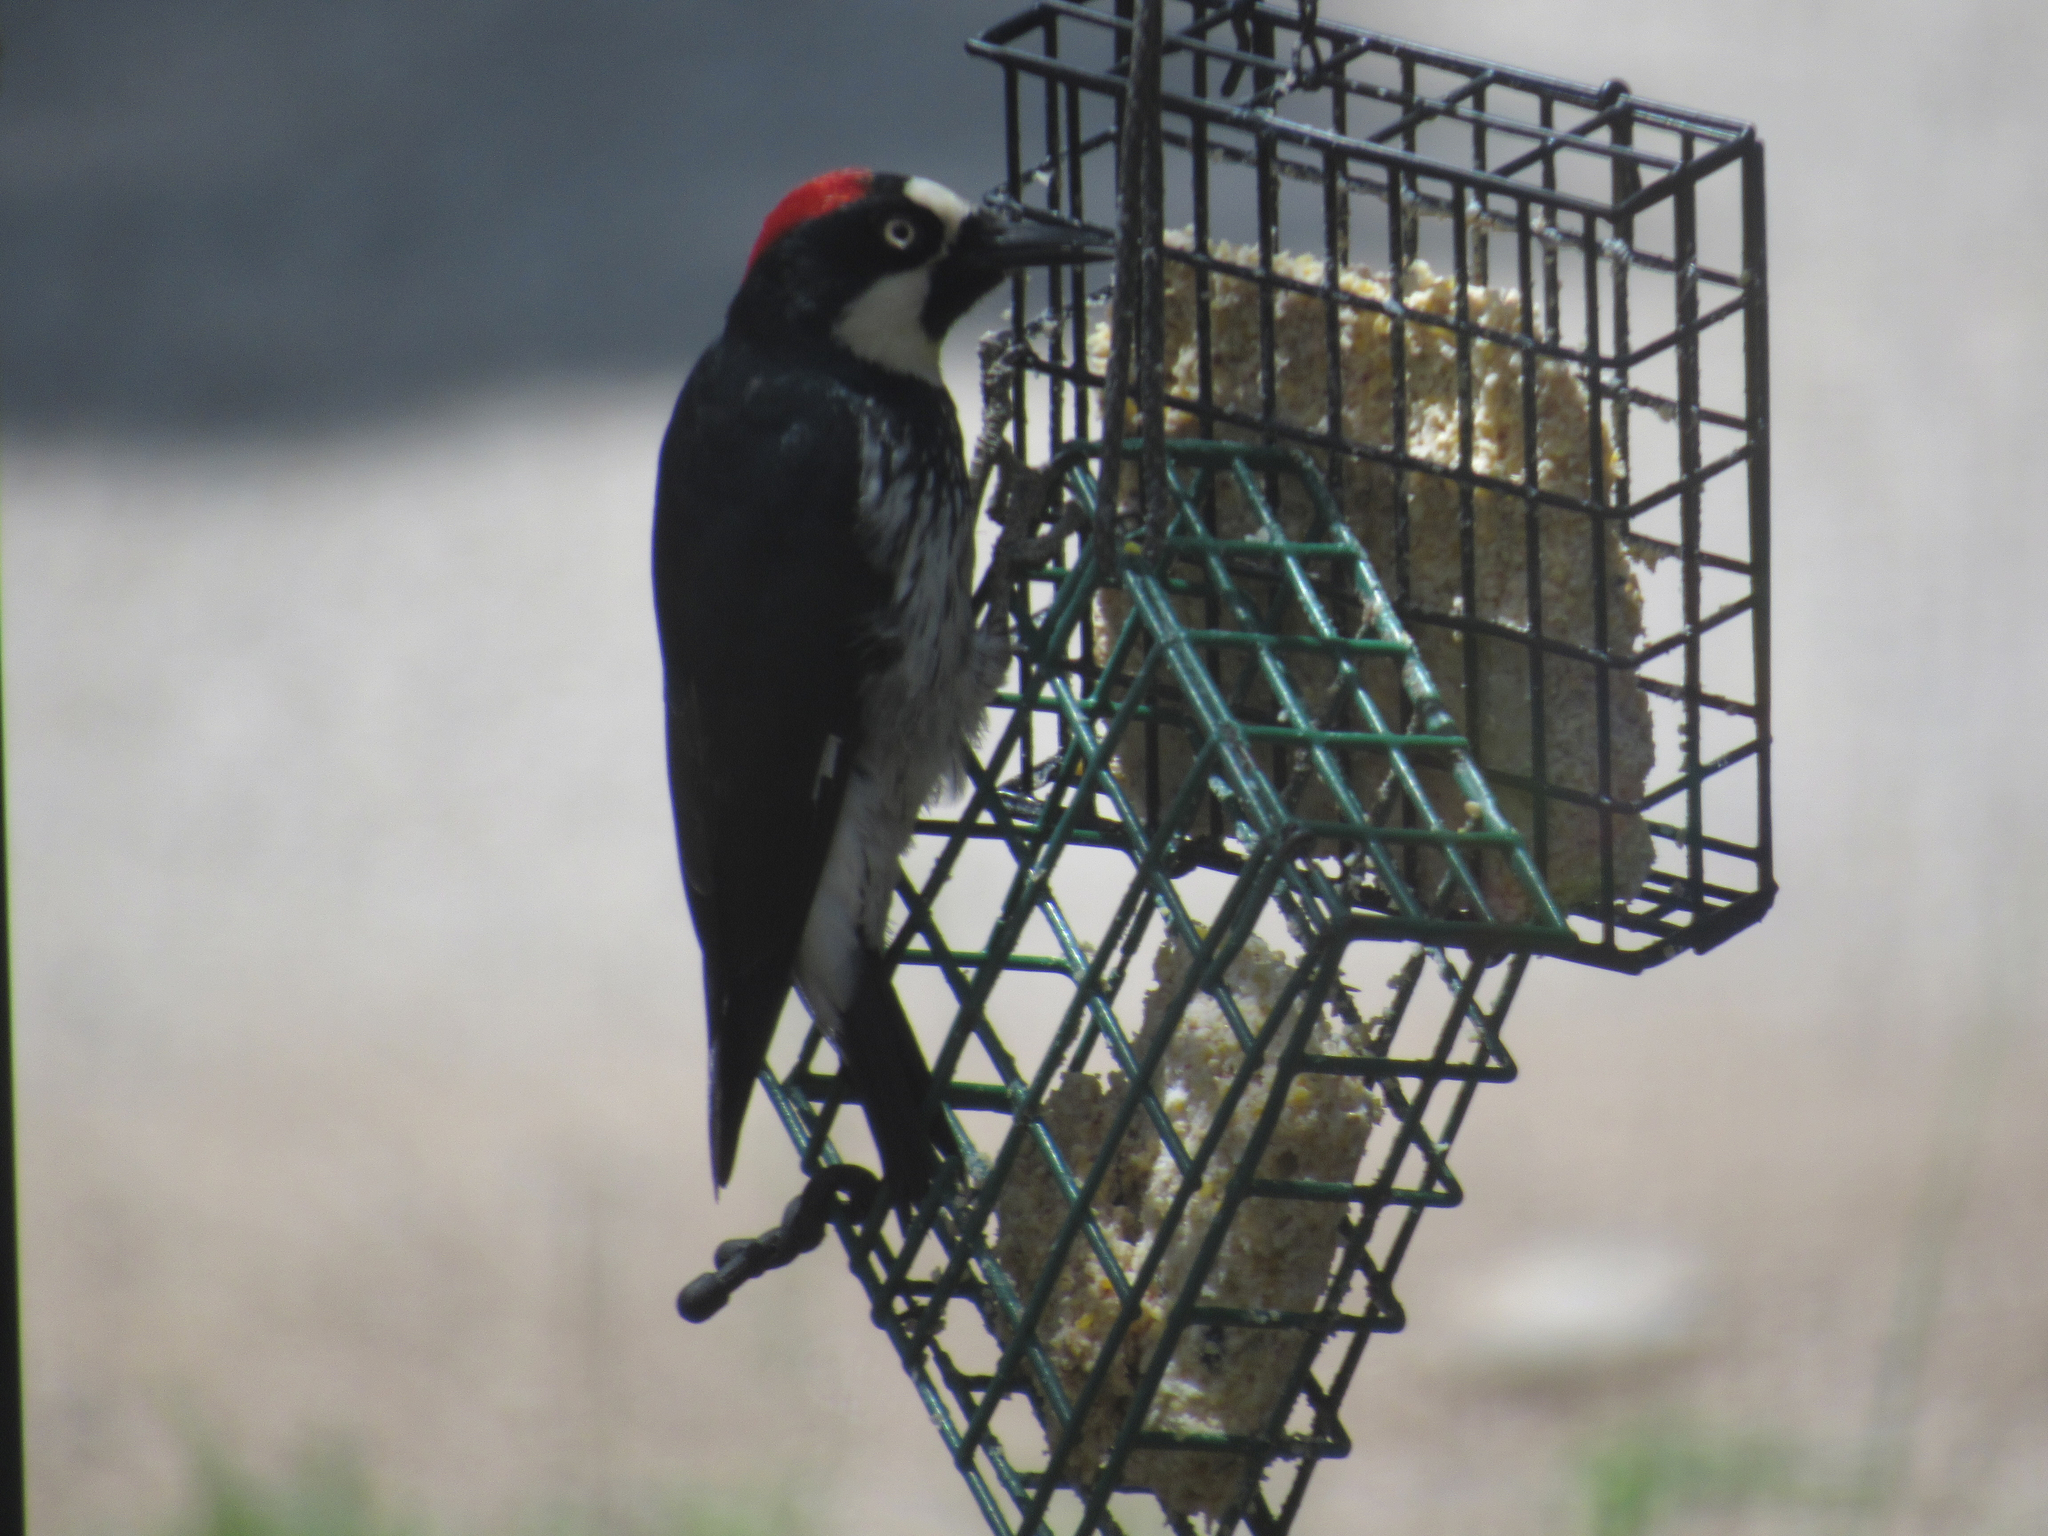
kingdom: Animalia
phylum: Chordata
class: Aves
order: Piciformes
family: Picidae
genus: Melanerpes
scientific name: Melanerpes formicivorus
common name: Acorn woodpecker
